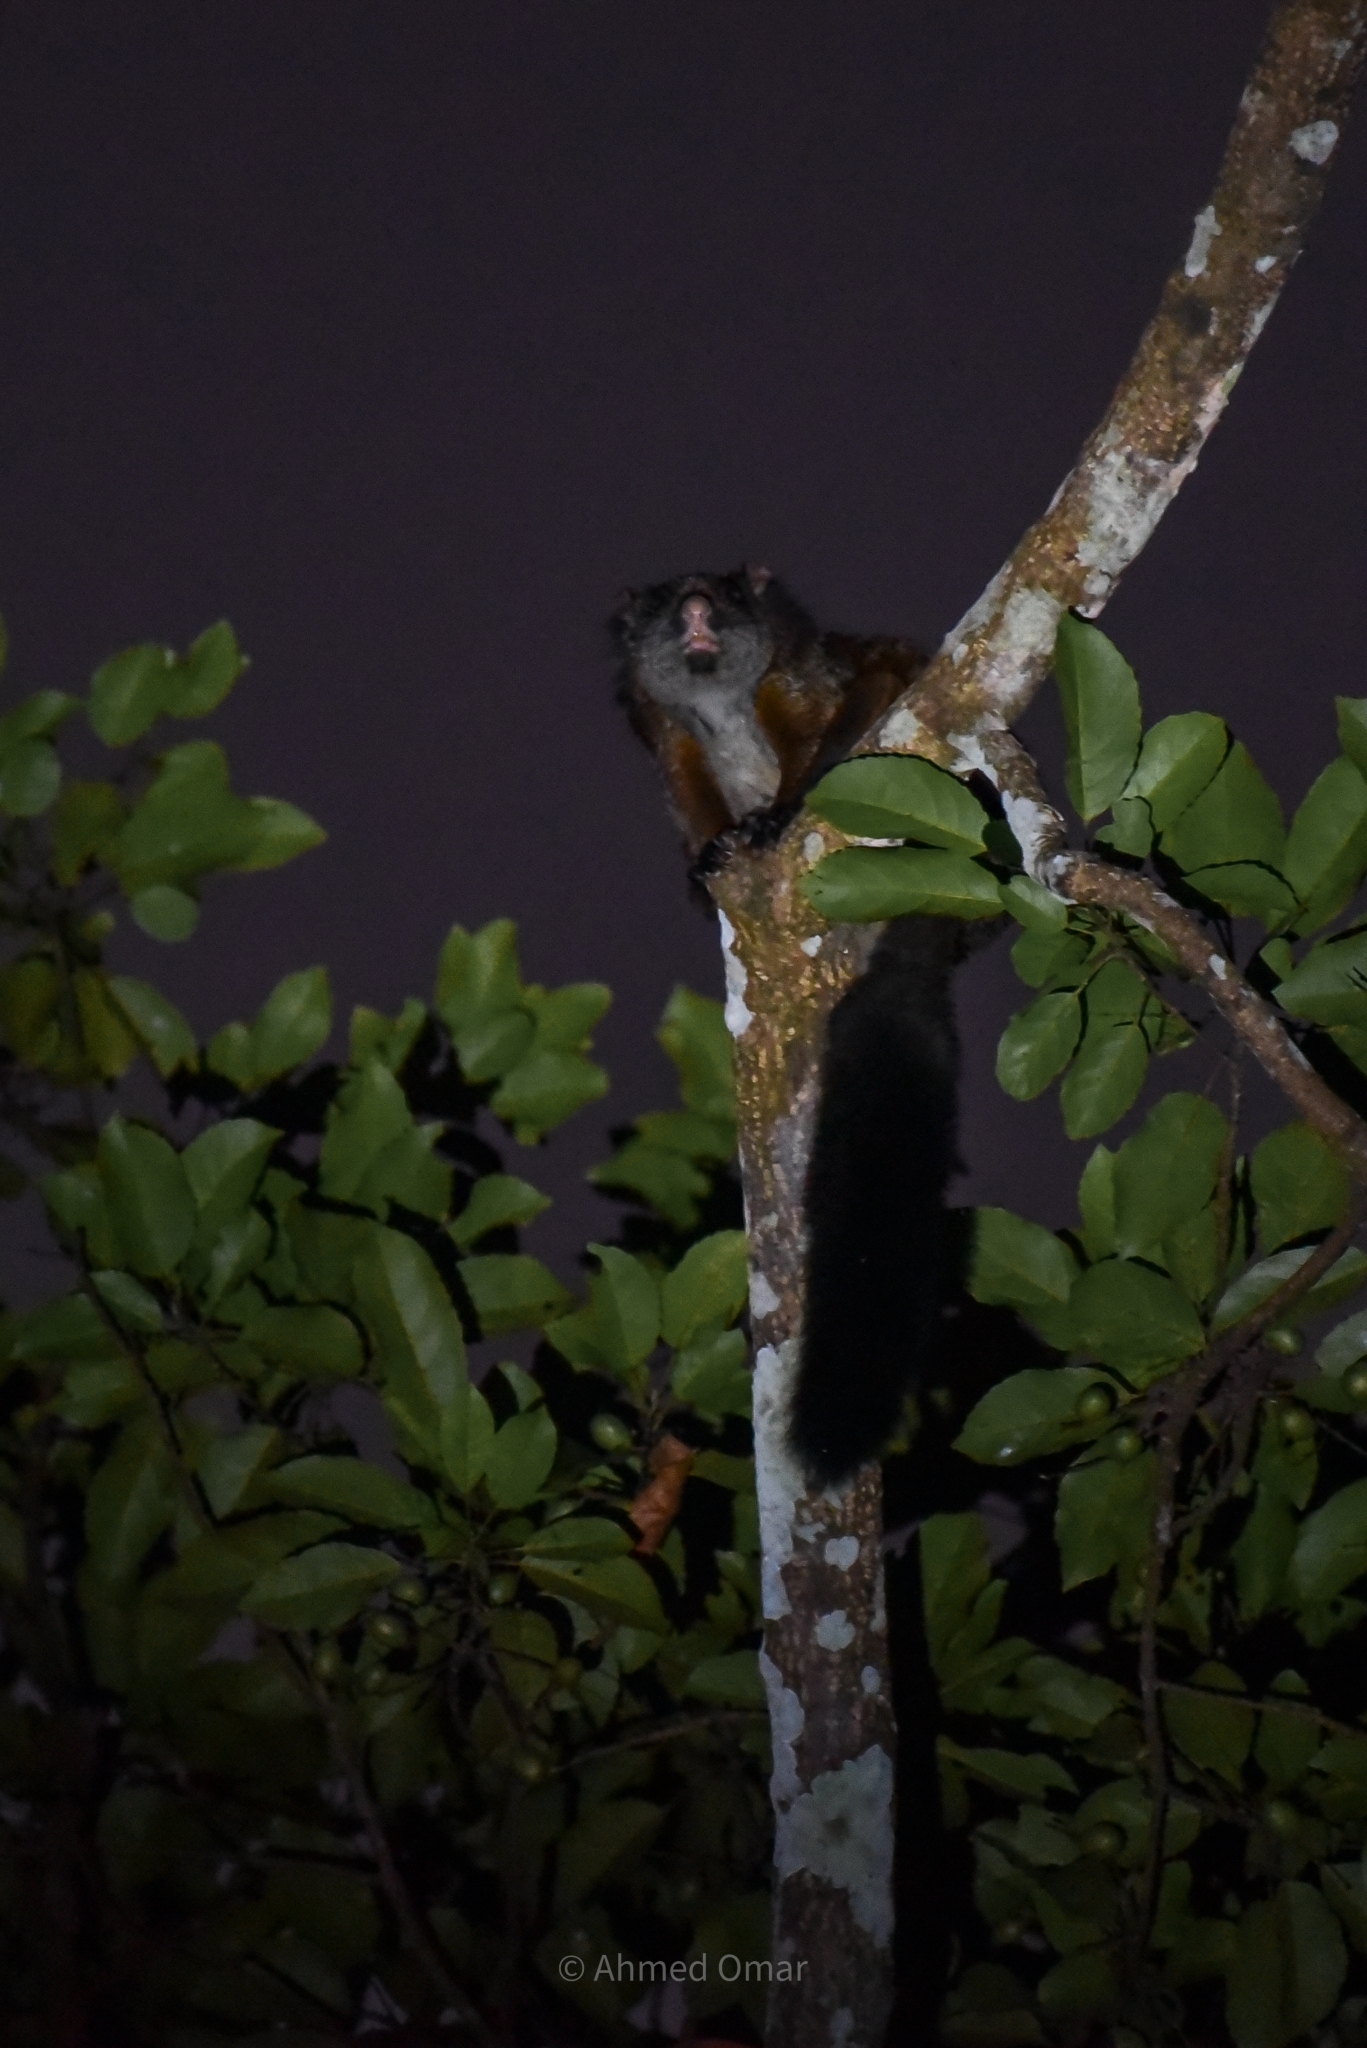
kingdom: Animalia
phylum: Chordata
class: Mammalia
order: Rodentia
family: Sciuridae
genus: Petaurista
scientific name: Petaurista philippensis
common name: Indian giant flying squirrel
